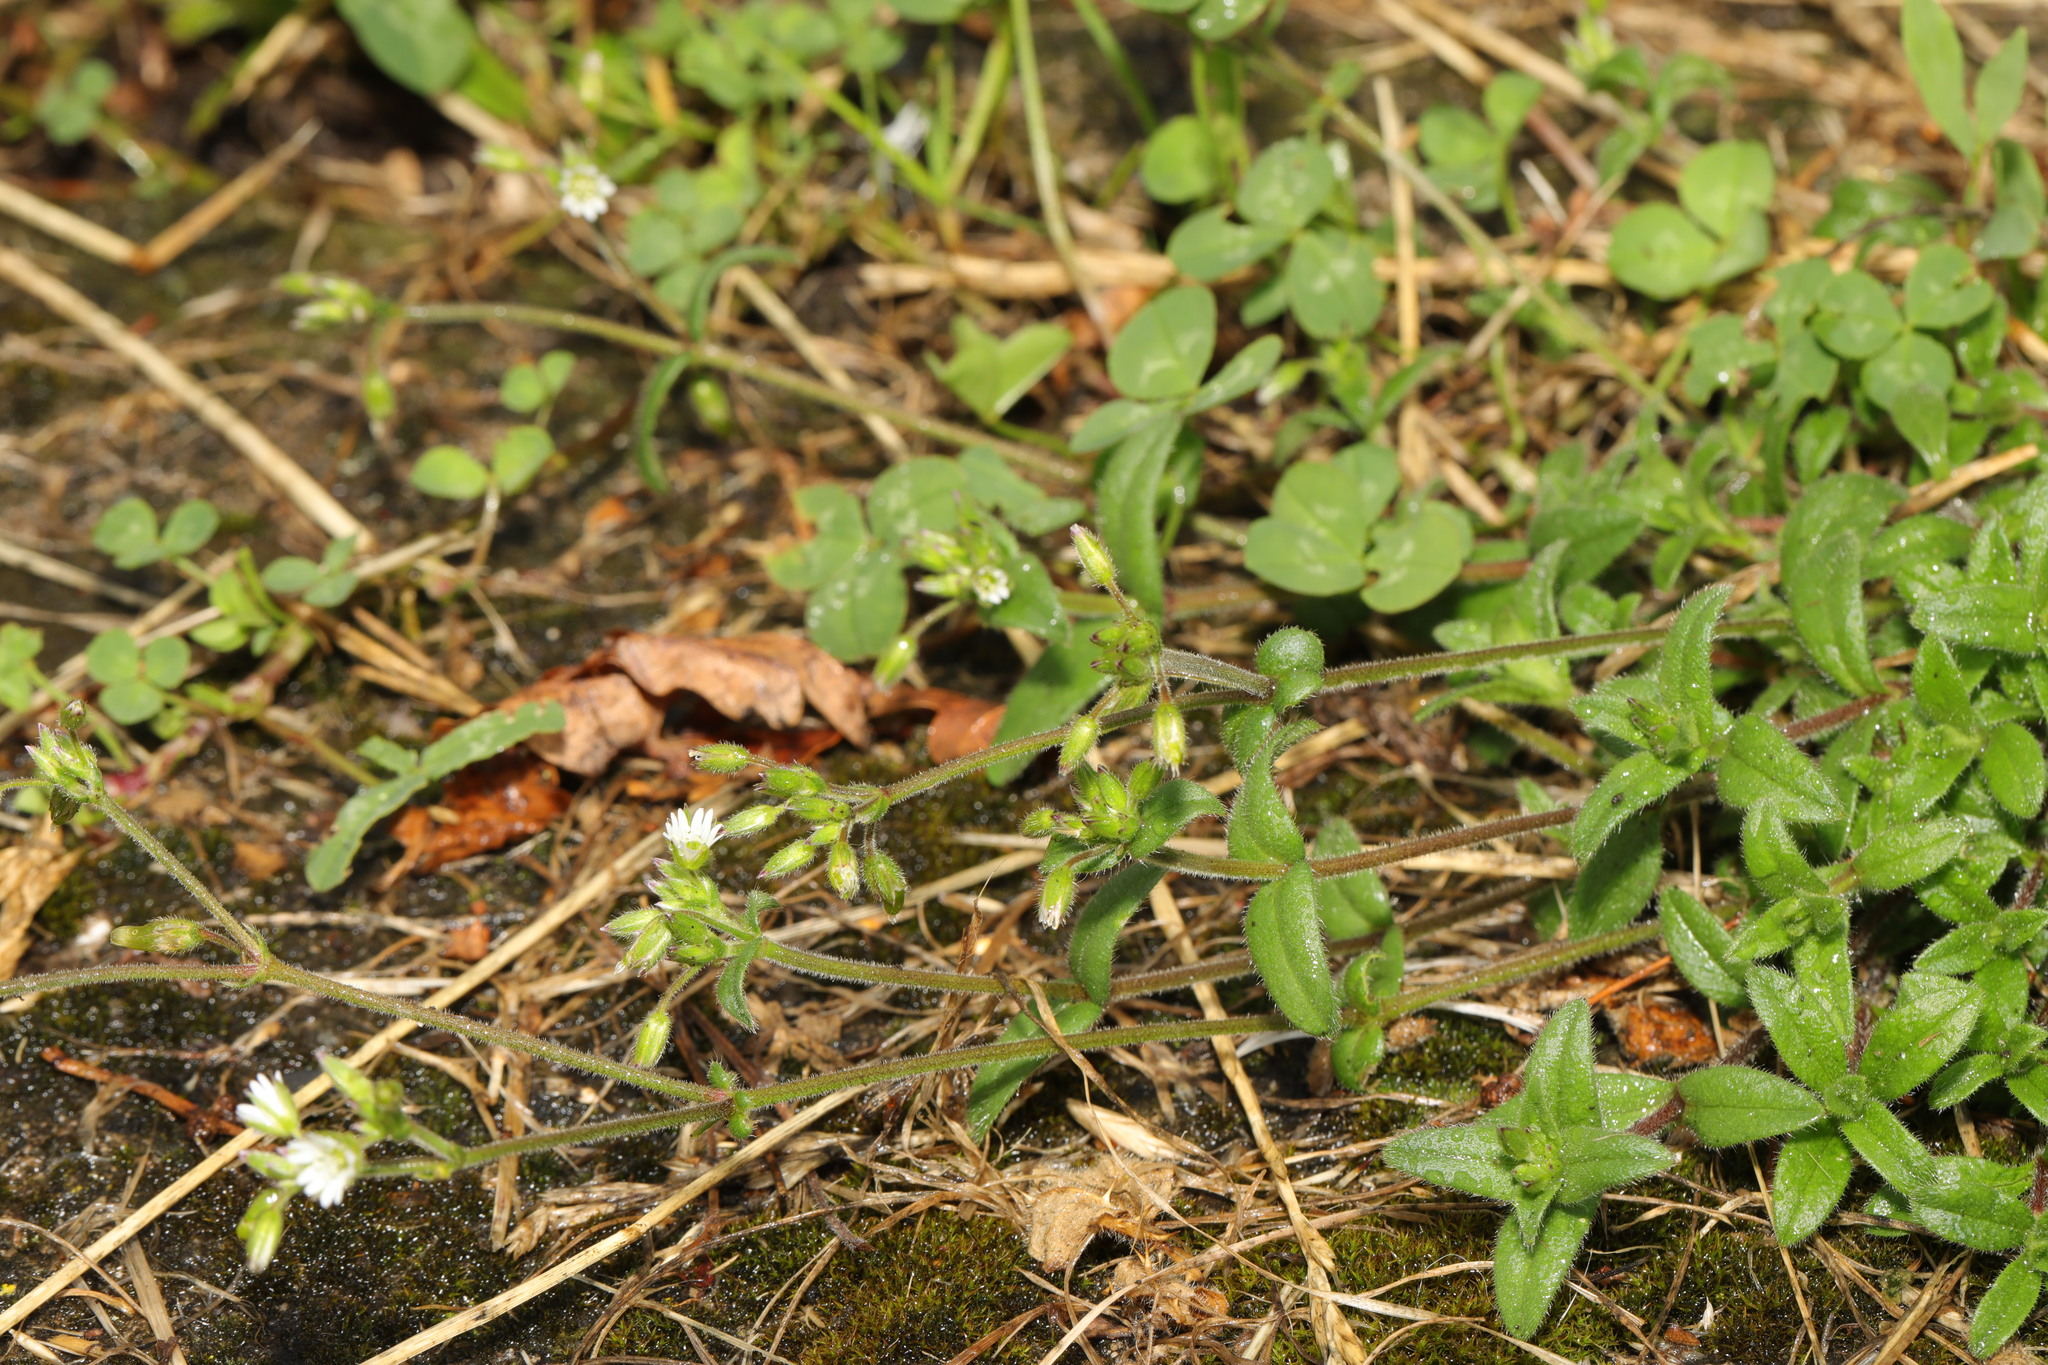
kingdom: Plantae
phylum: Tracheophyta
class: Magnoliopsida
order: Caryophyllales
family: Caryophyllaceae
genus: Cerastium
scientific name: Cerastium fontanum
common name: Common mouse-ear
